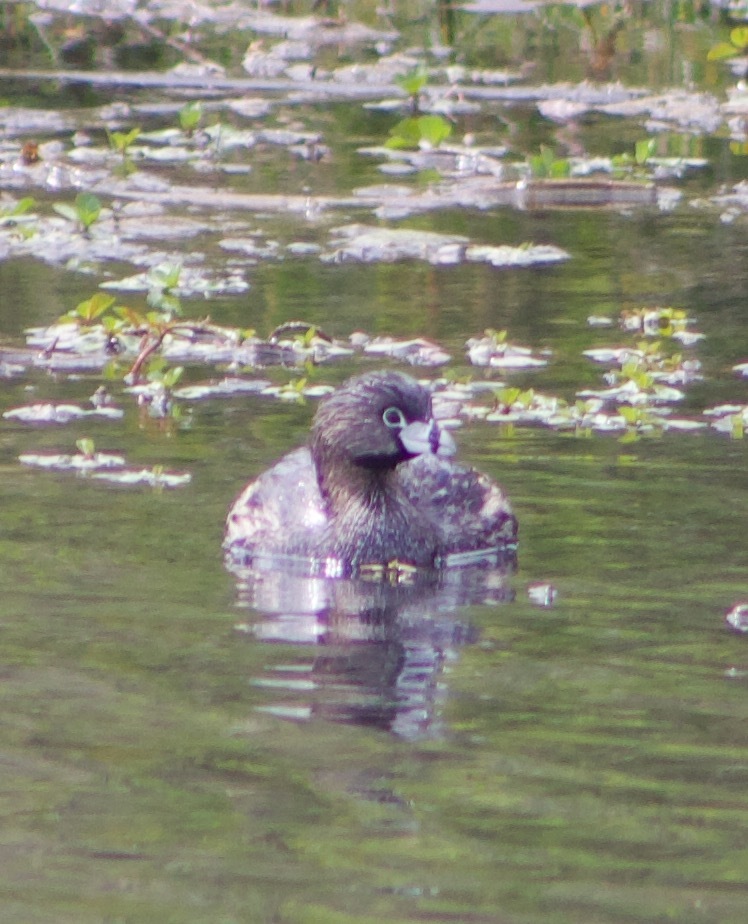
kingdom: Animalia
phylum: Chordata
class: Aves
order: Podicipediformes
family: Podicipedidae
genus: Podilymbus
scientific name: Podilymbus podiceps
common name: Pied-billed grebe
